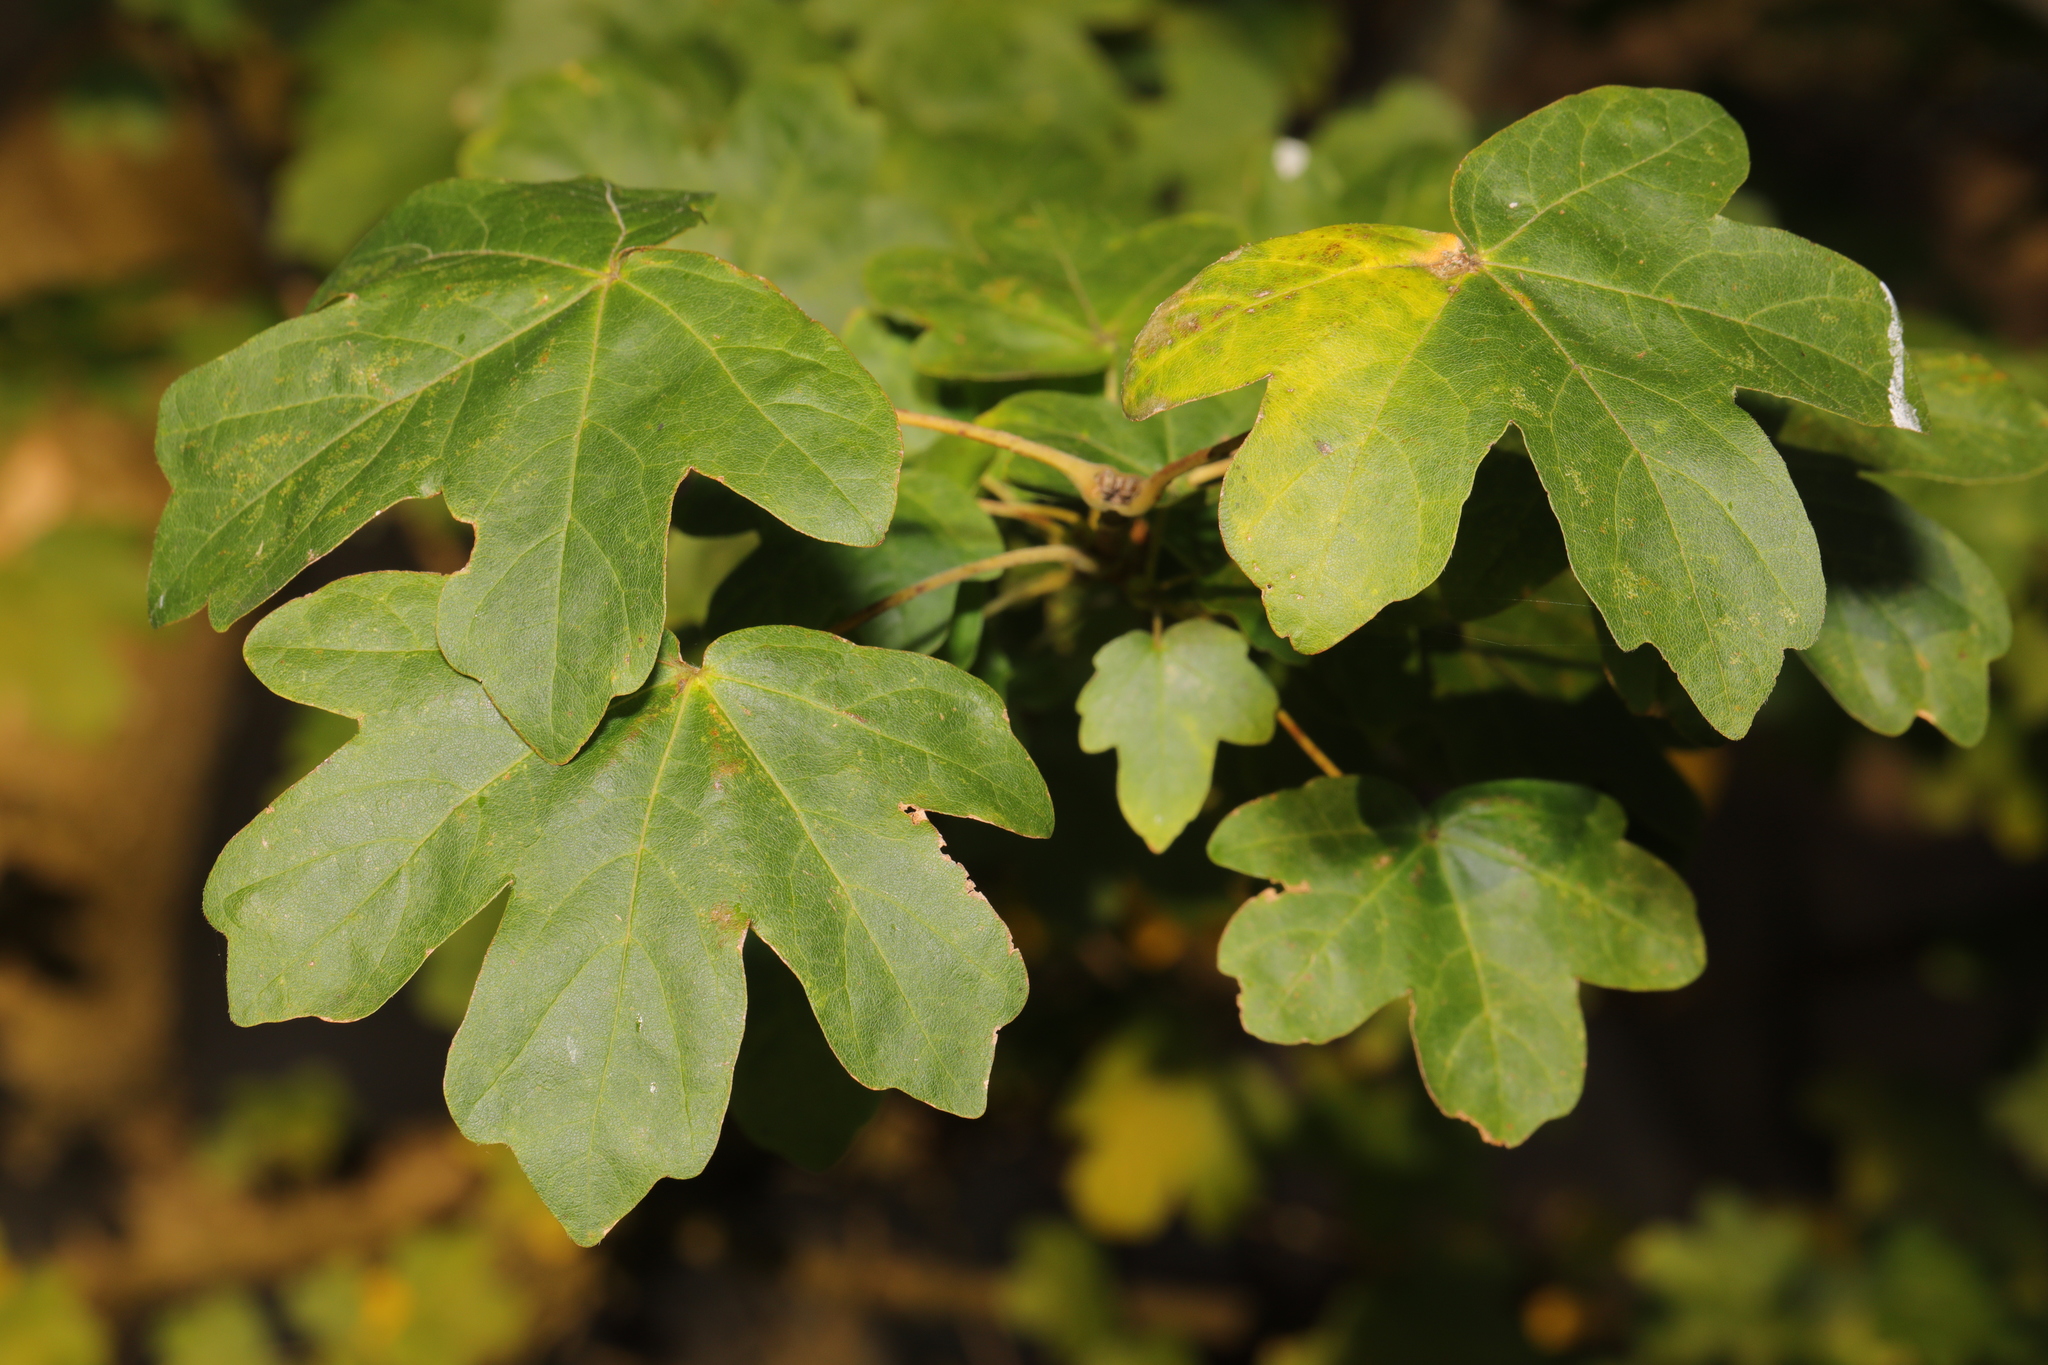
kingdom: Plantae
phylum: Tracheophyta
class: Magnoliopsida
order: Sapindales
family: Sapindaceae
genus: Acer
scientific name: Acer campestre
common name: Field maple
